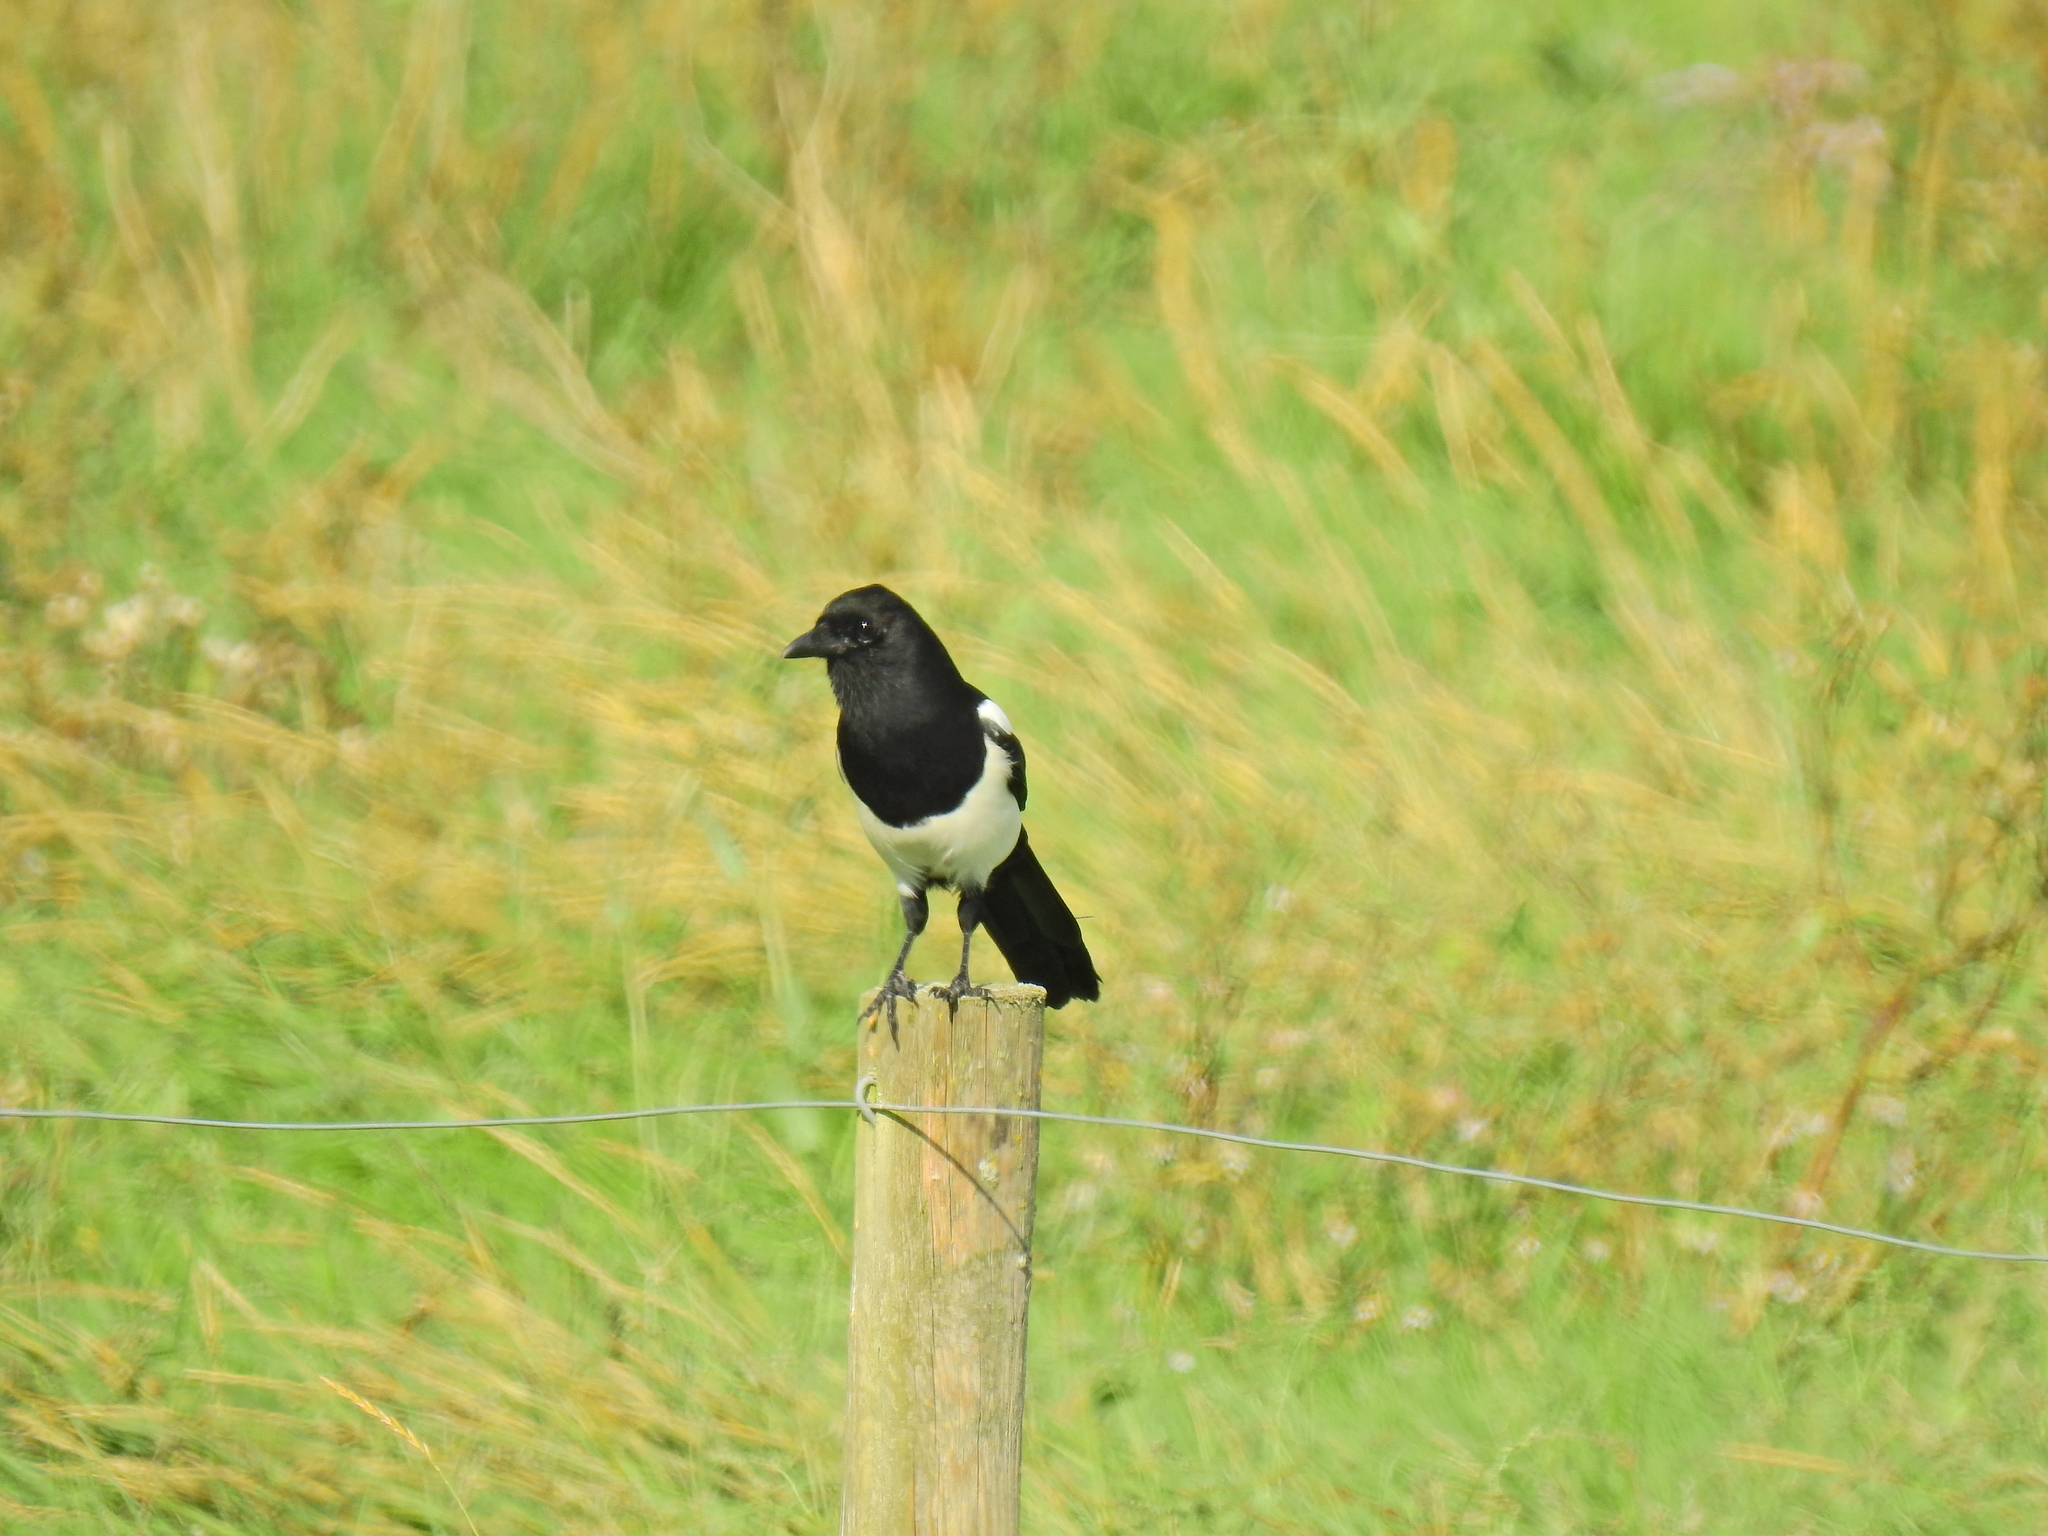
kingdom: Animalia
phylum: Chordata
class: Aves
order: Passeriformes
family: Corvidae
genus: Pica
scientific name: Pica pica
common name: Eurasian magpie
